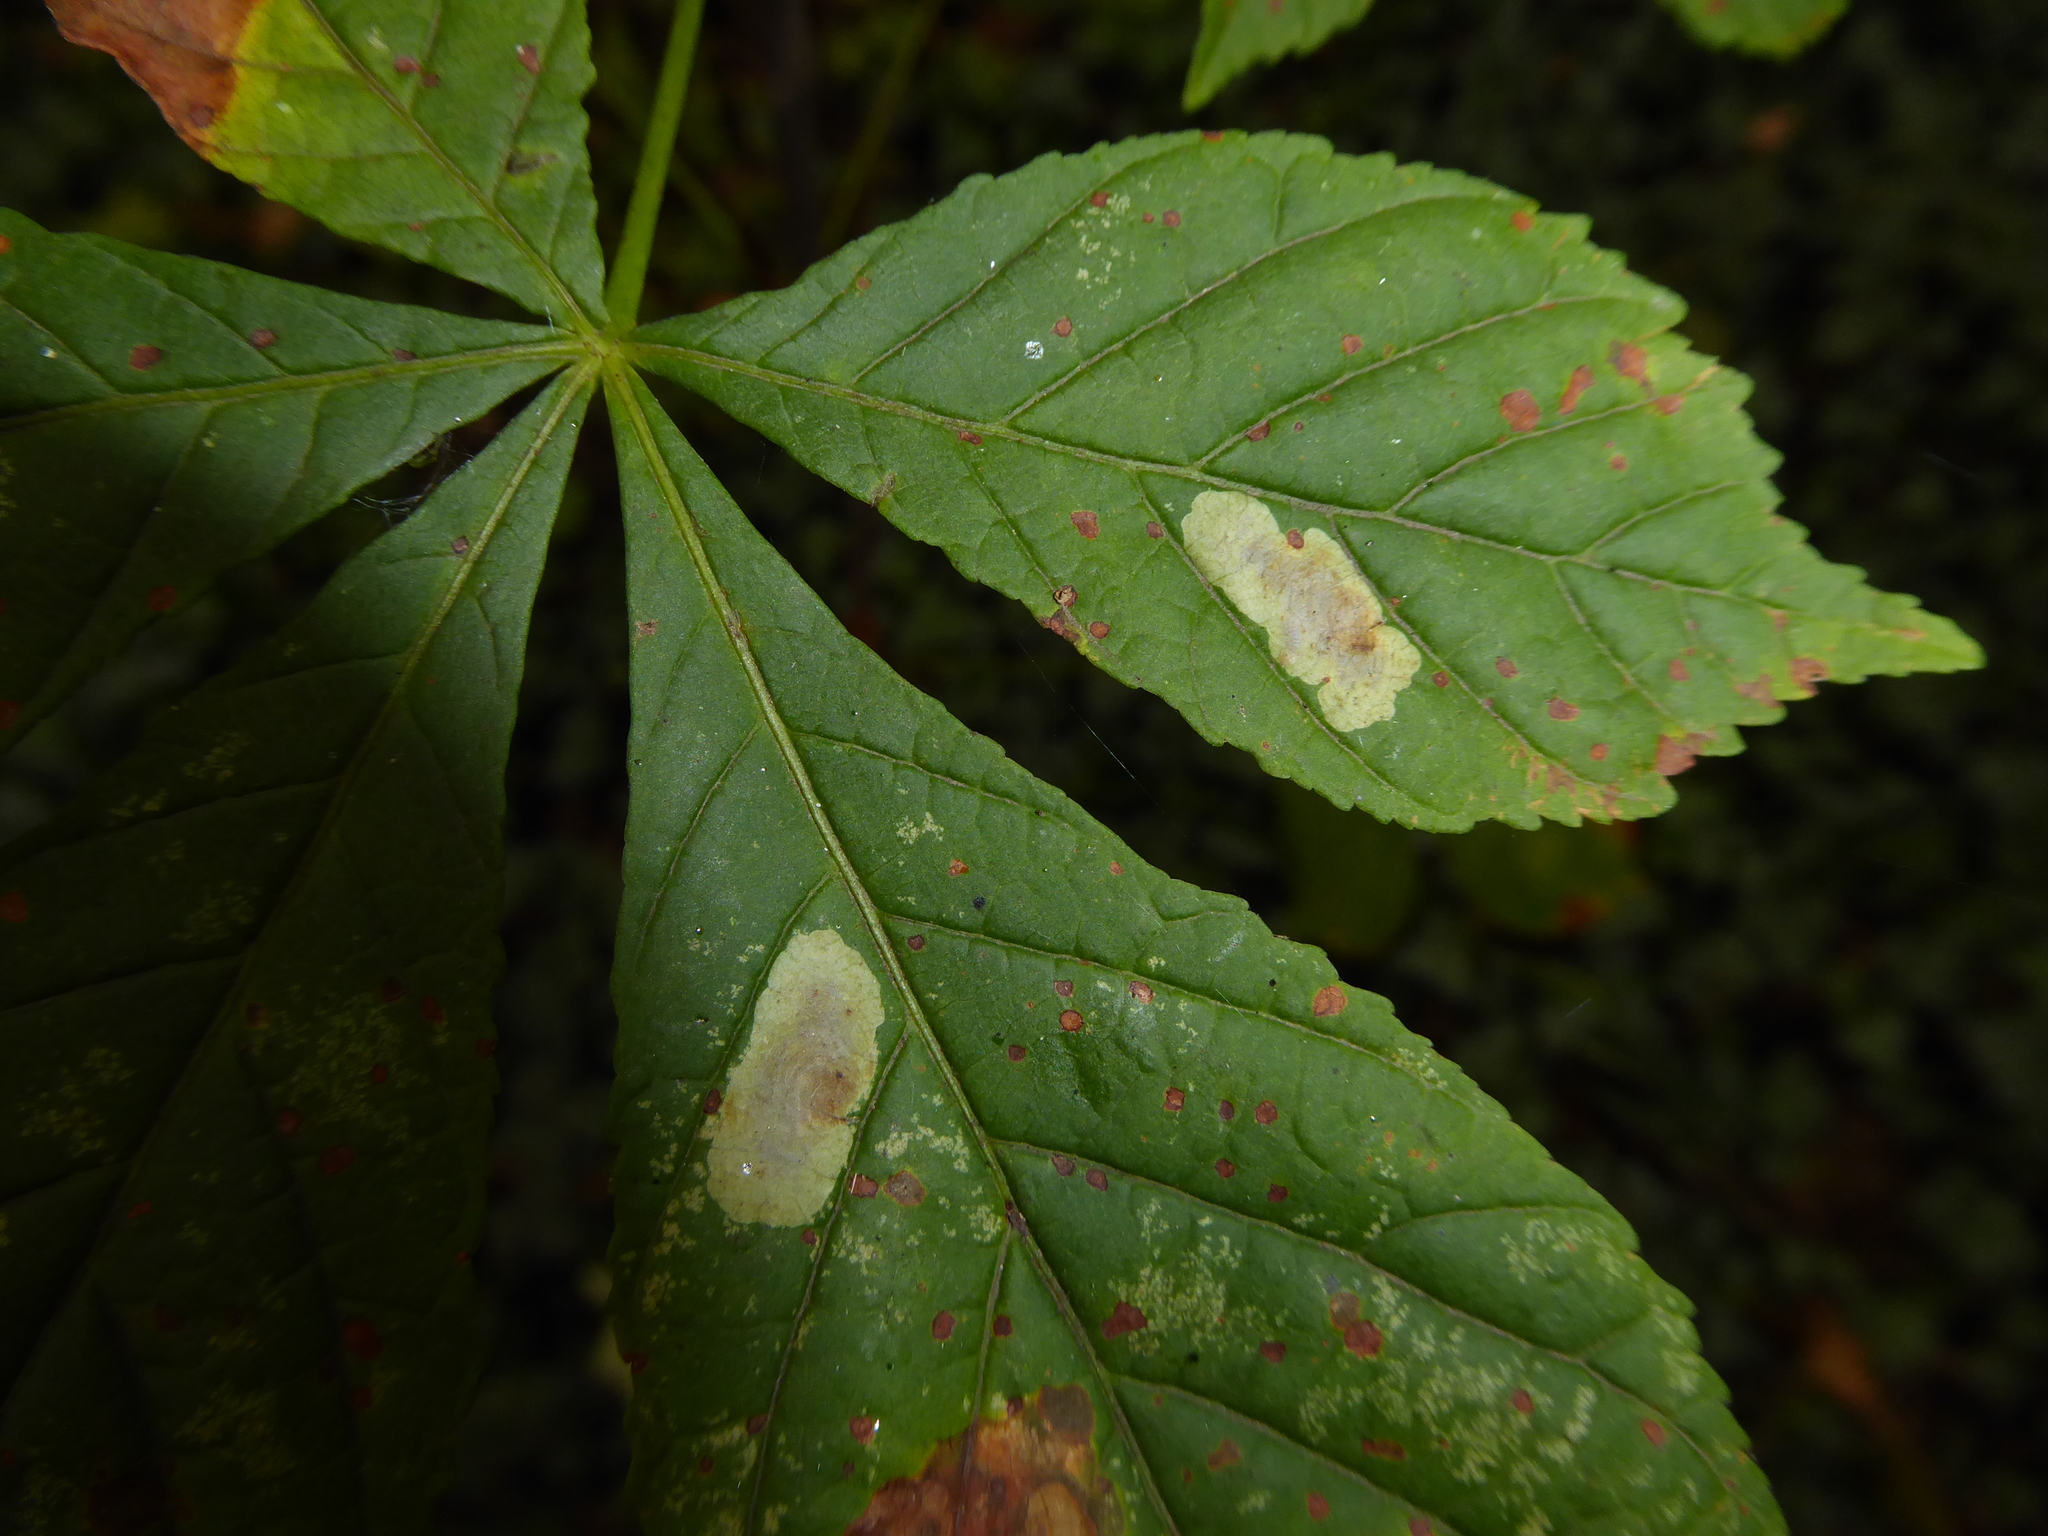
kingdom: Animalia
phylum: Arthropoda
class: Insecta
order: Lepidoptera
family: Gracillariidae
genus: Cameraria
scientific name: Cameraria ohridella
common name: Horse-chestnut leaf-miner
